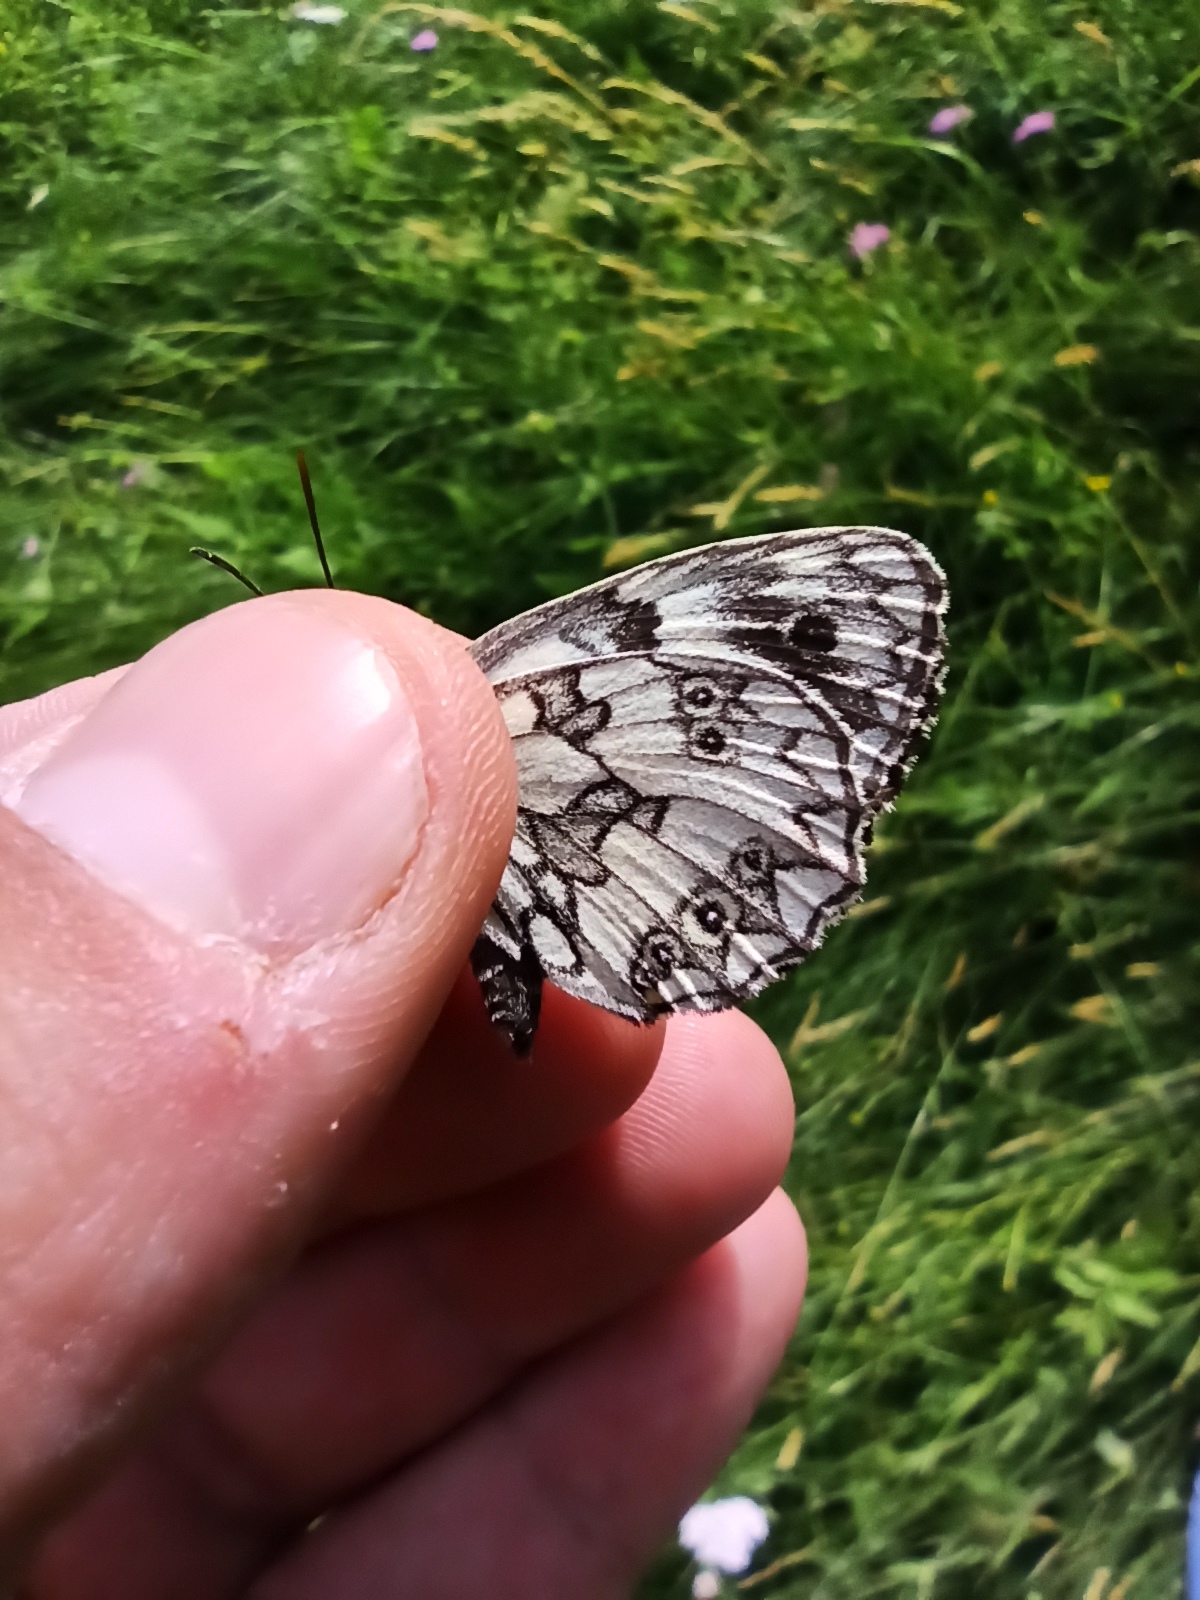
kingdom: Animalia
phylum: Arthropoda
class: Insecta
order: Lepidoptera
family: Nymphalidae
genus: Melanargia
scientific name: Melanargia galathea
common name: Marbled white
